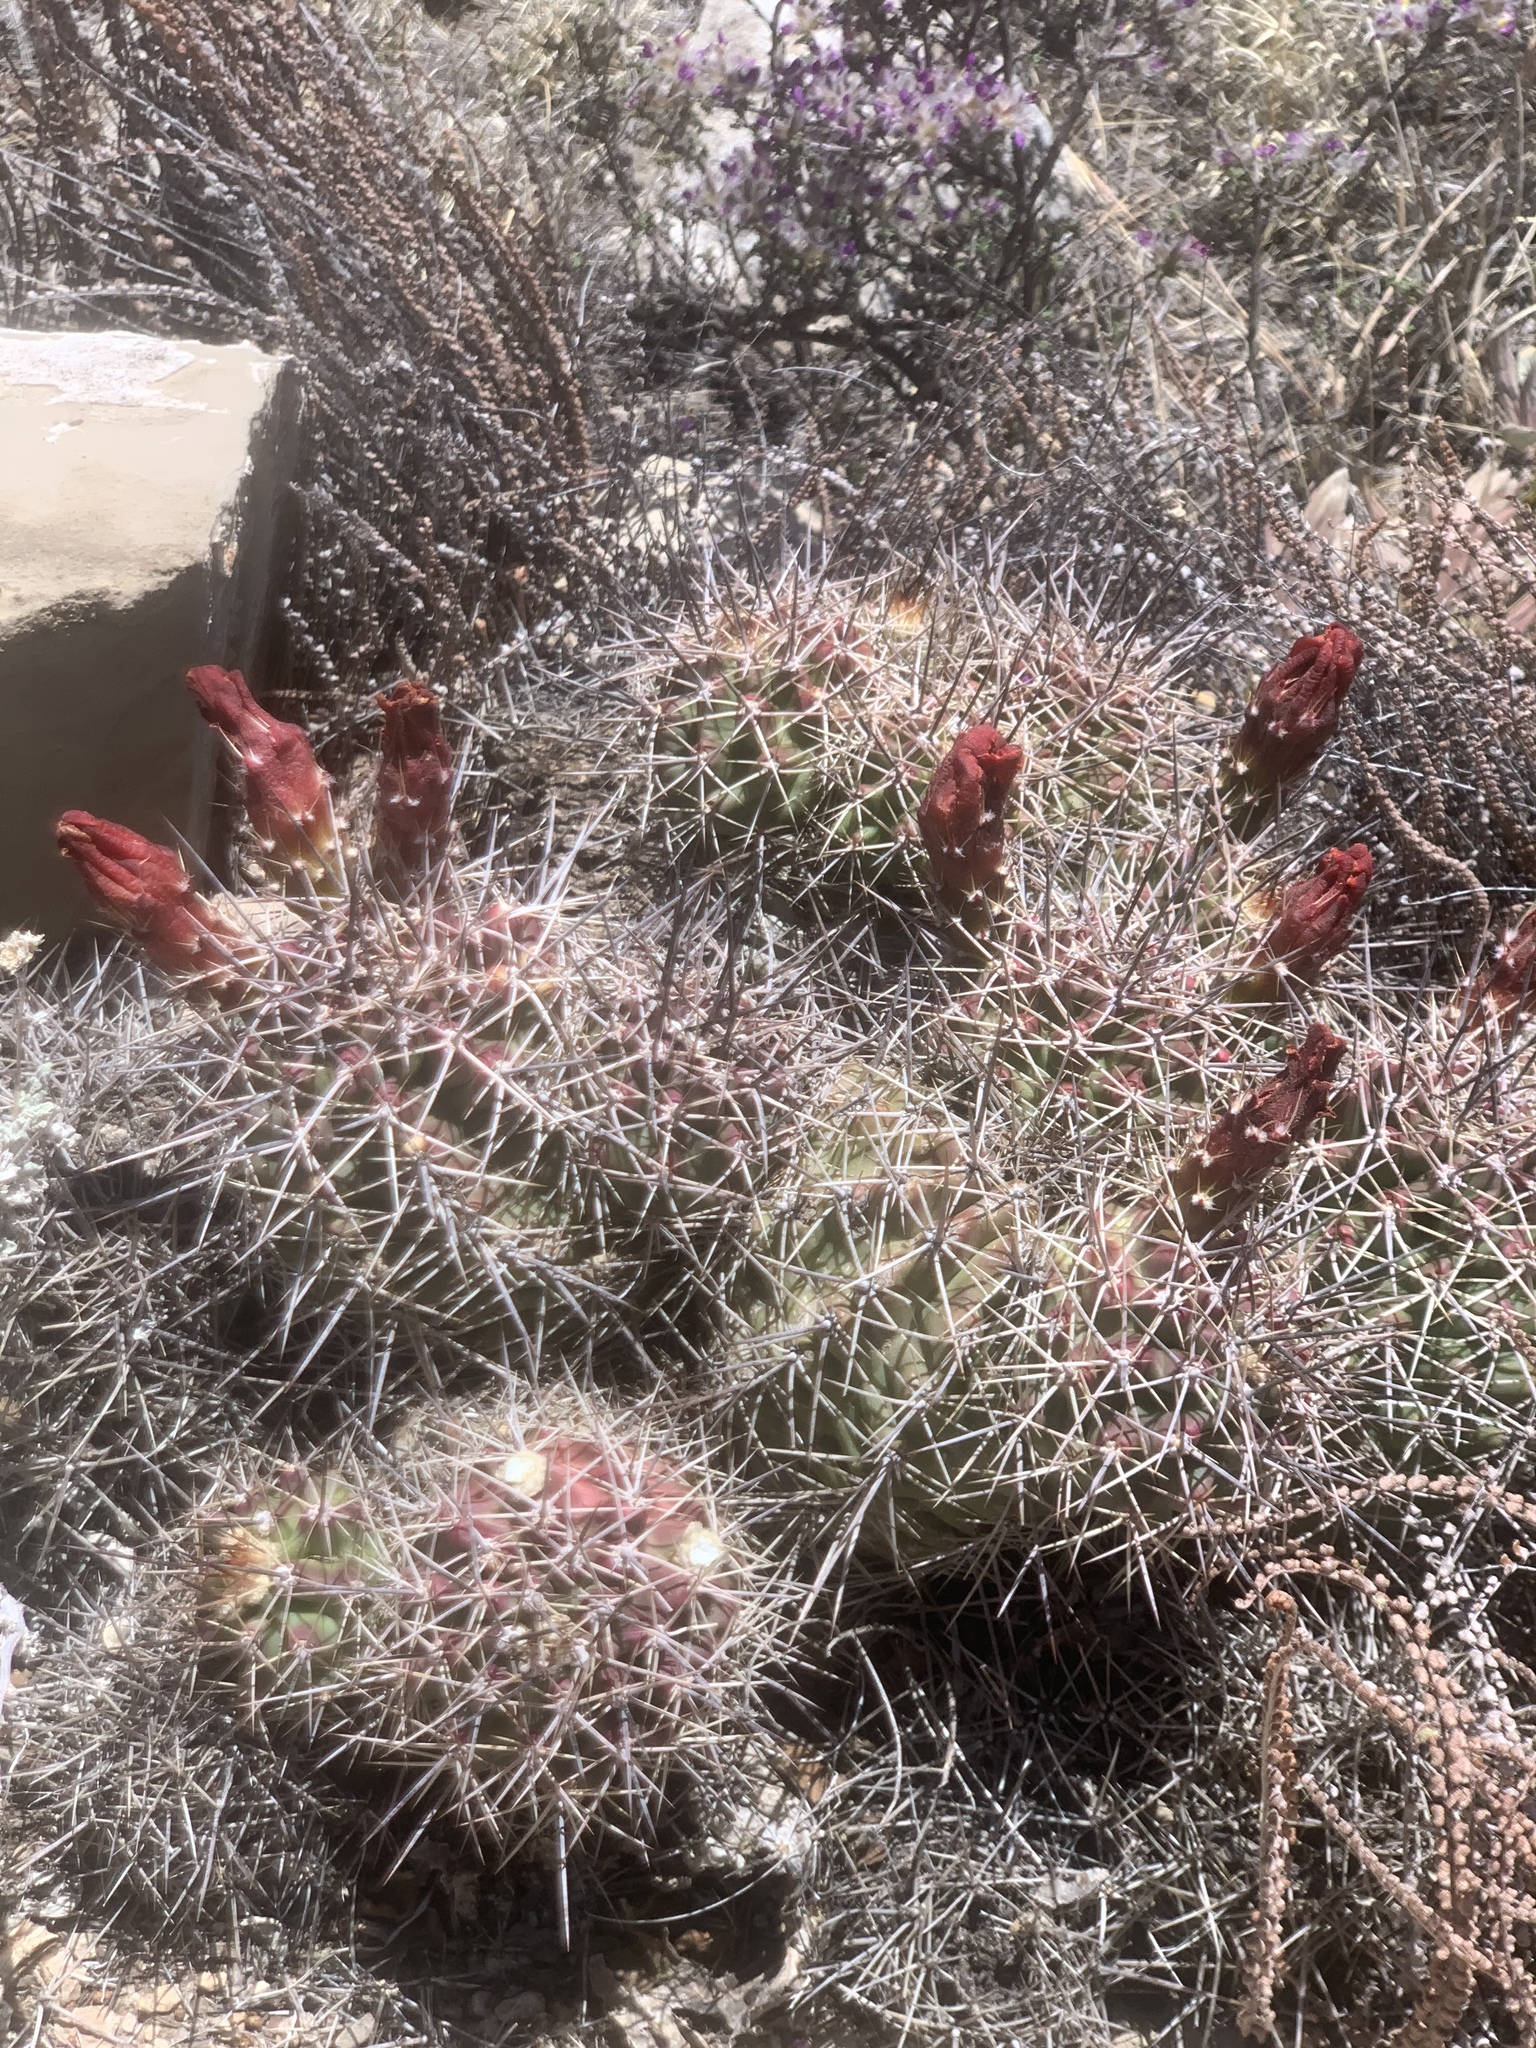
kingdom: Plantae
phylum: Tracheophyta
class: Magnoliopsida
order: Caryophyllales
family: Cactaceae
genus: Echinocereus
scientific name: Echinocereus coccineus
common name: Scarlet hedgehog cactus
